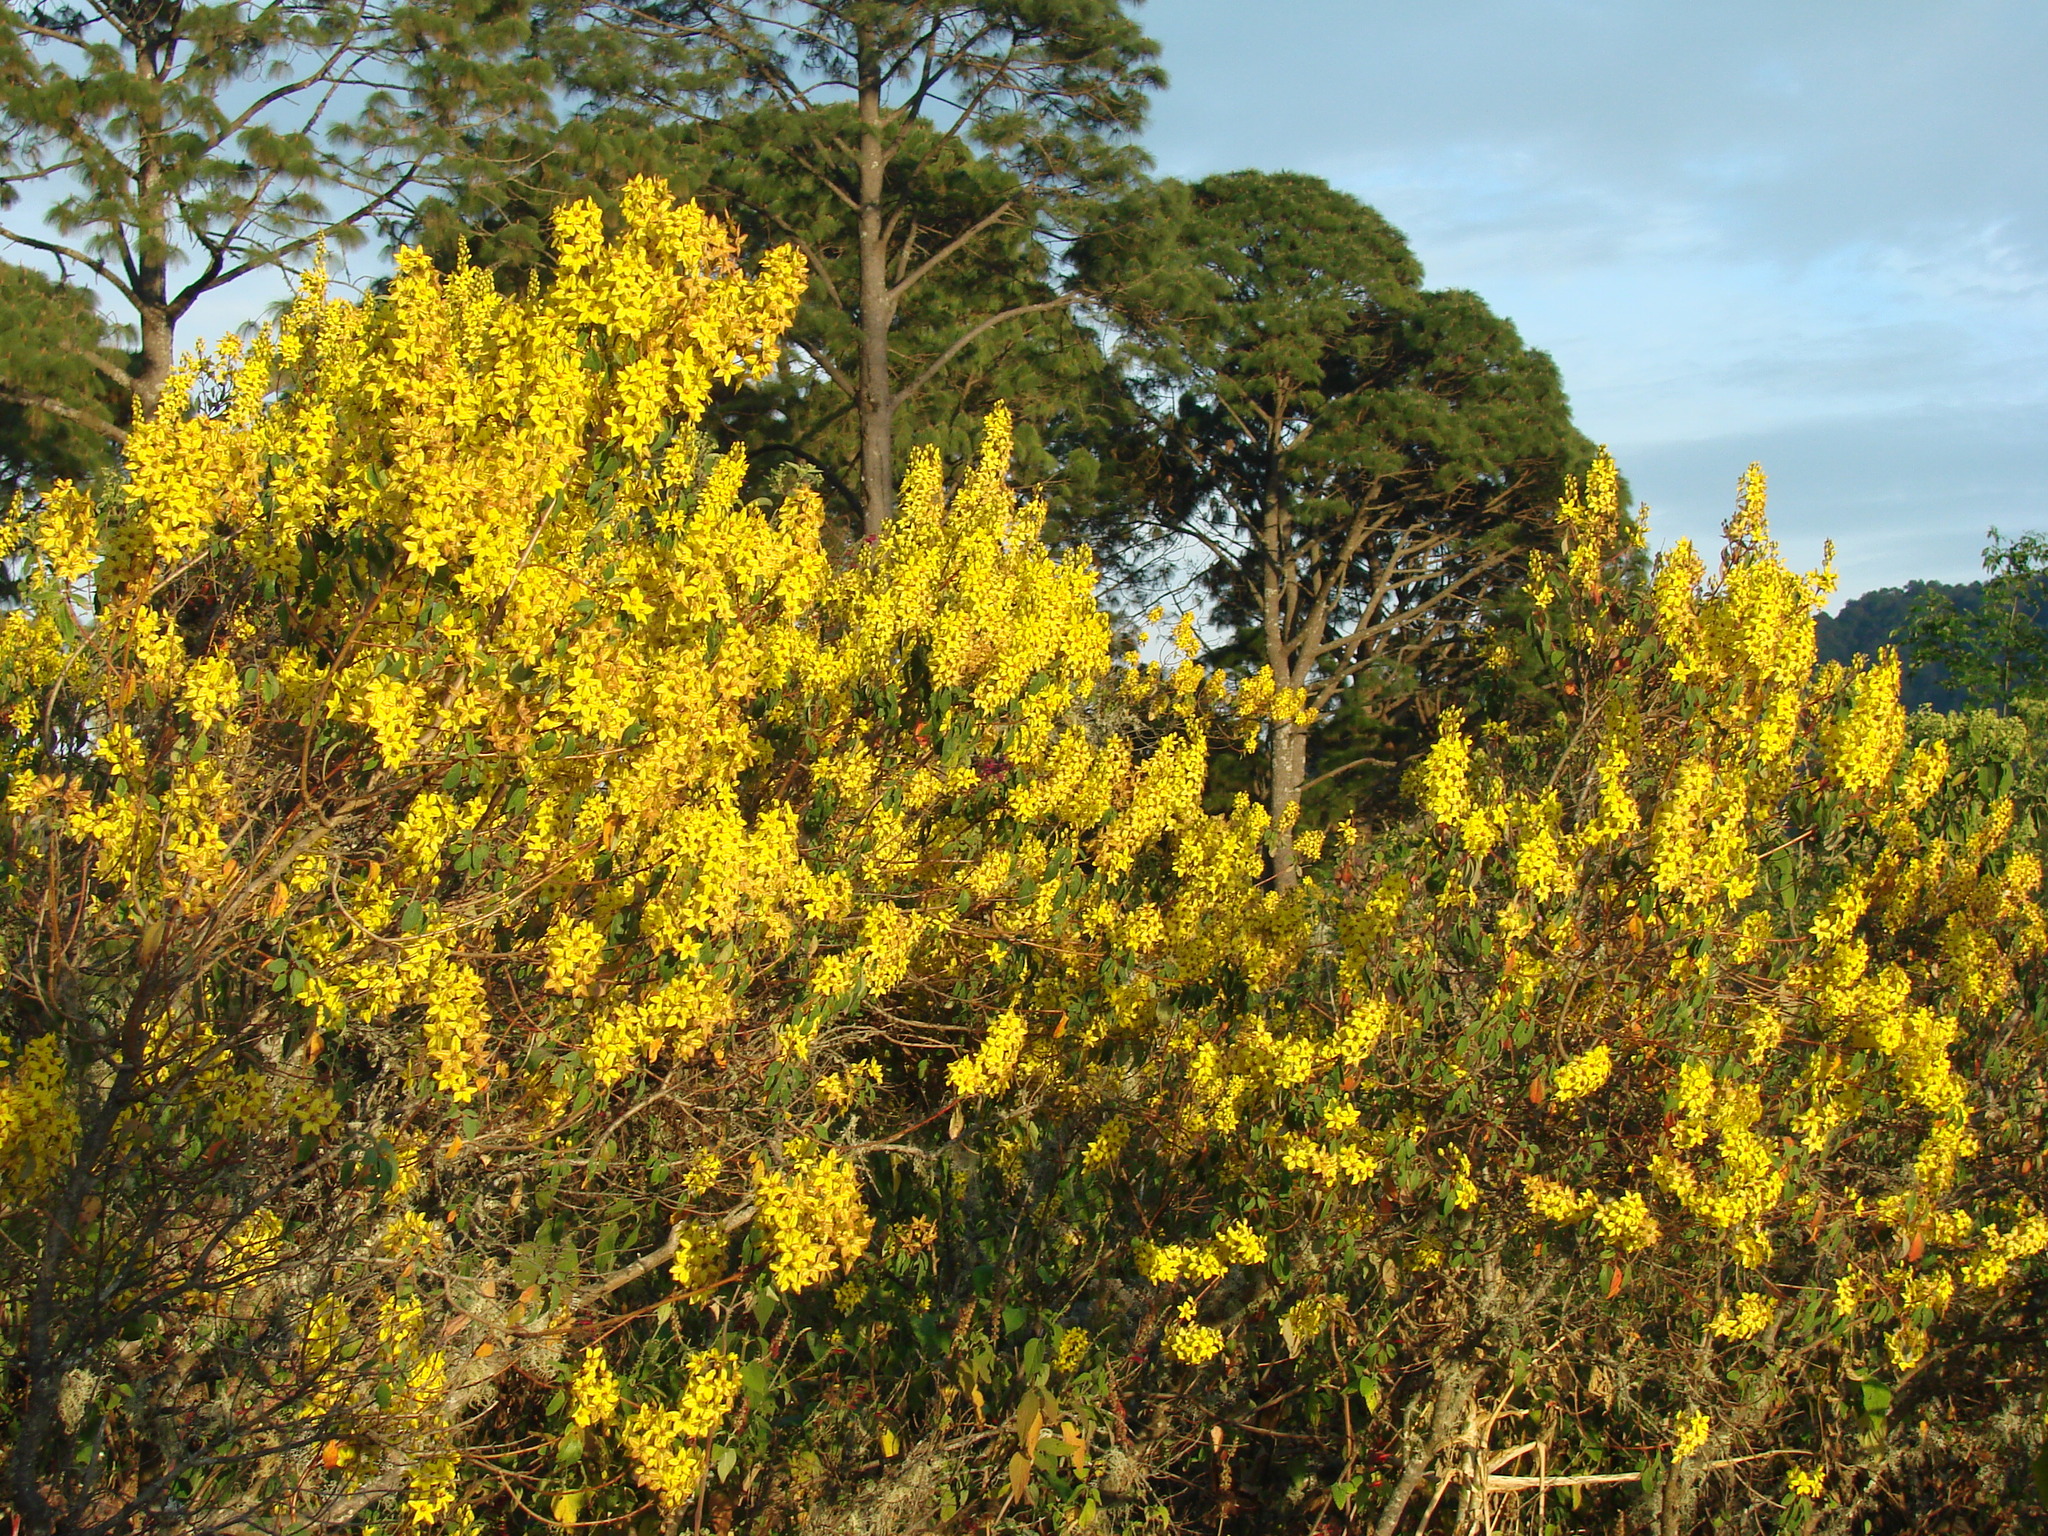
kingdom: Plantae
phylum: Tracheophyta
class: Magnoliopsida
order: Malpighiales
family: Malpighiaceae
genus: Galphimia
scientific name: Galphimia glauca
